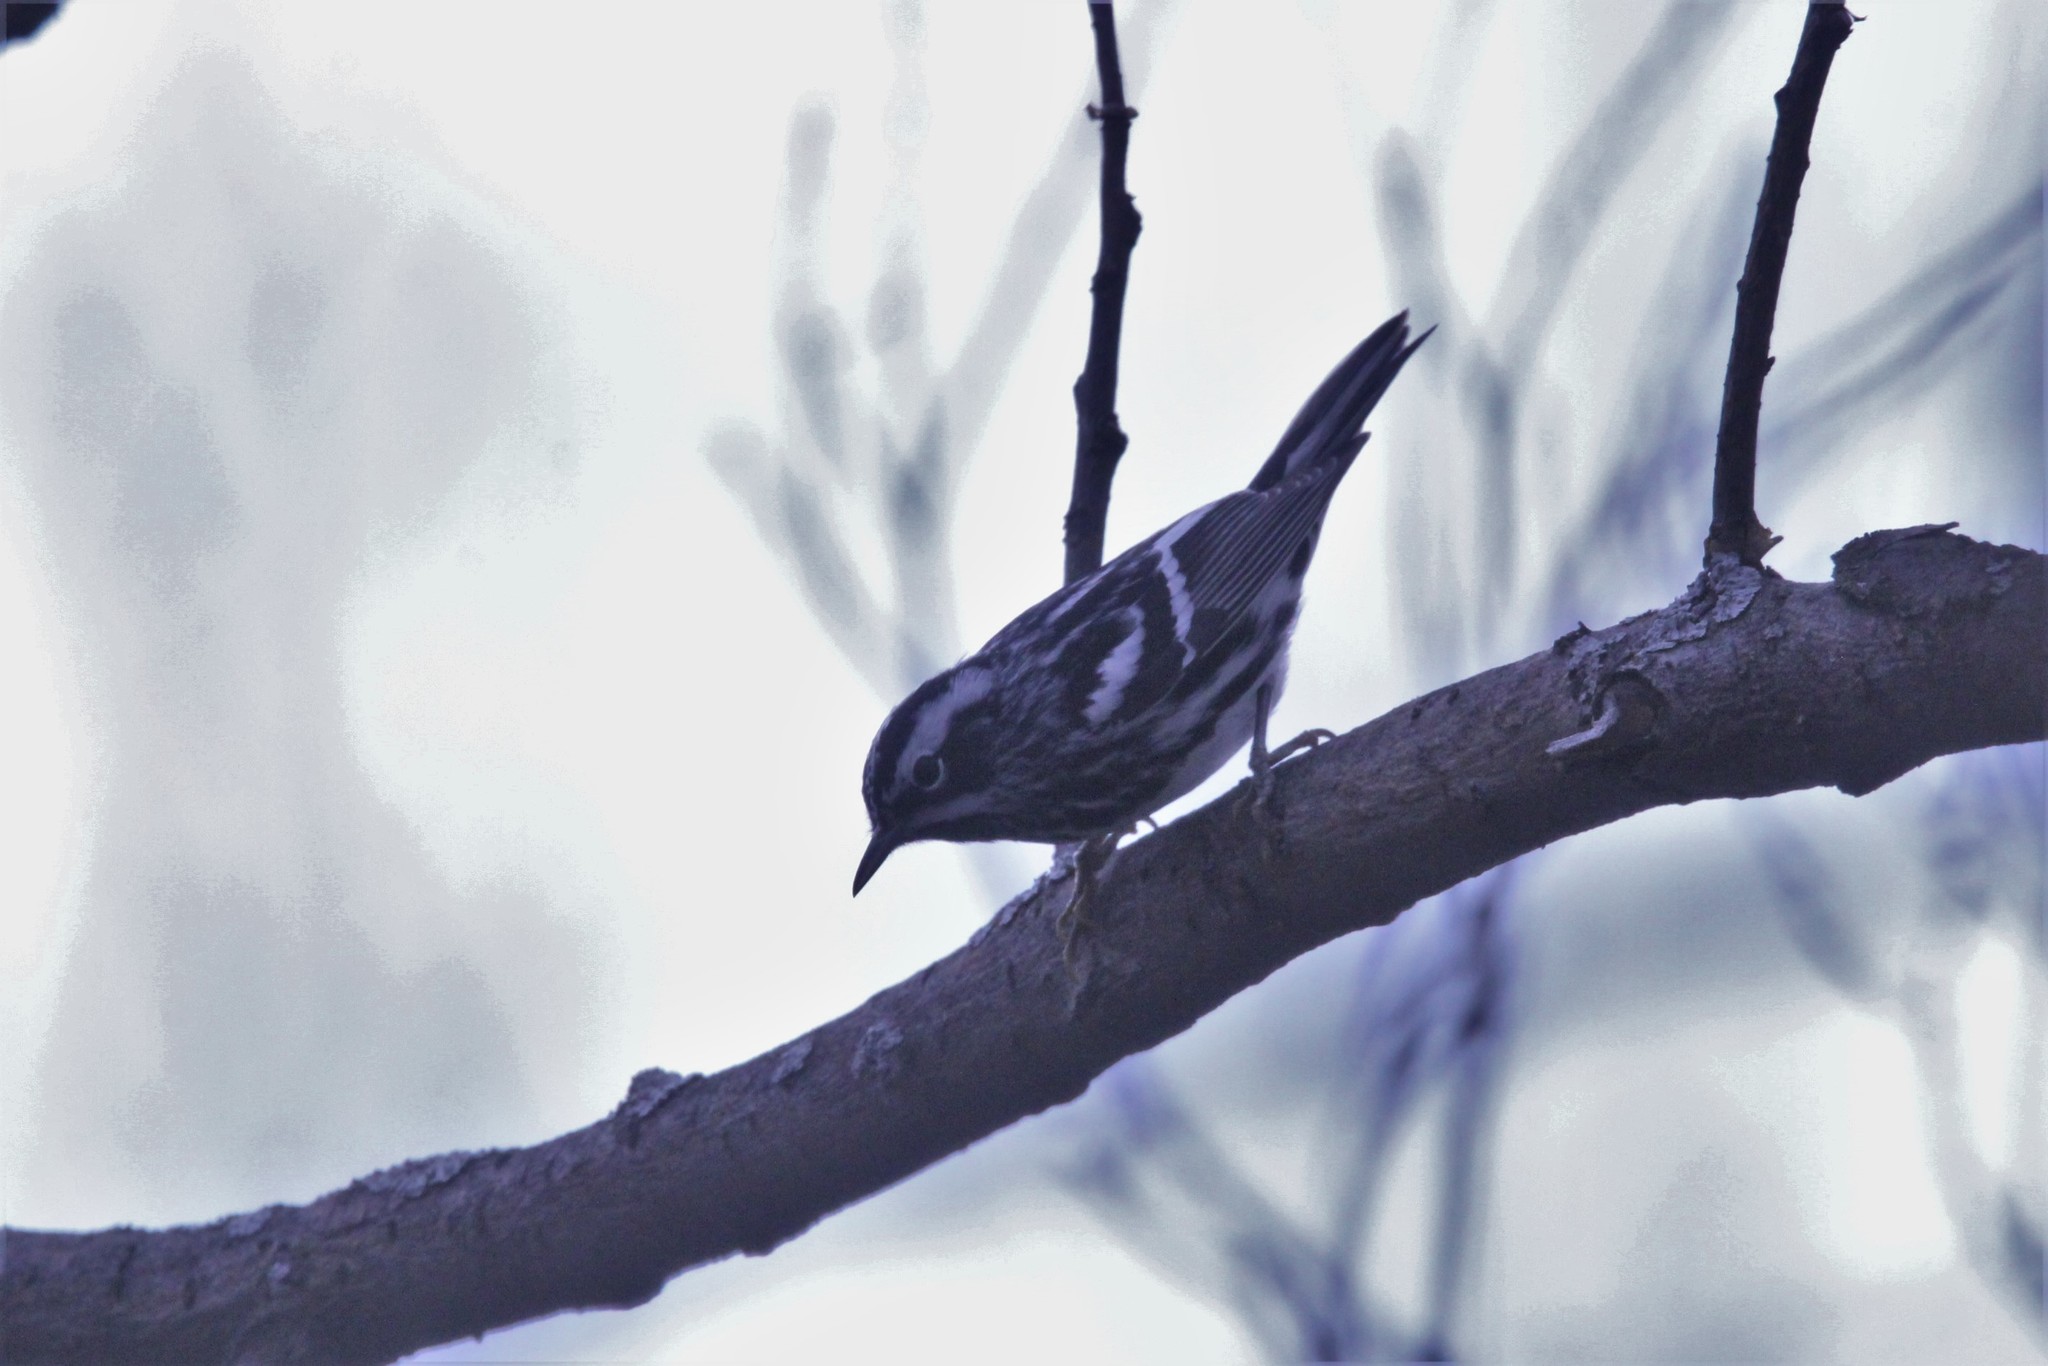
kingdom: Animalia
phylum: Chordata
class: Aves
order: Passeriformes
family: Parulidae
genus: Mniotilta
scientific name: Mniotilta varia
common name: Black-and-white warbler
